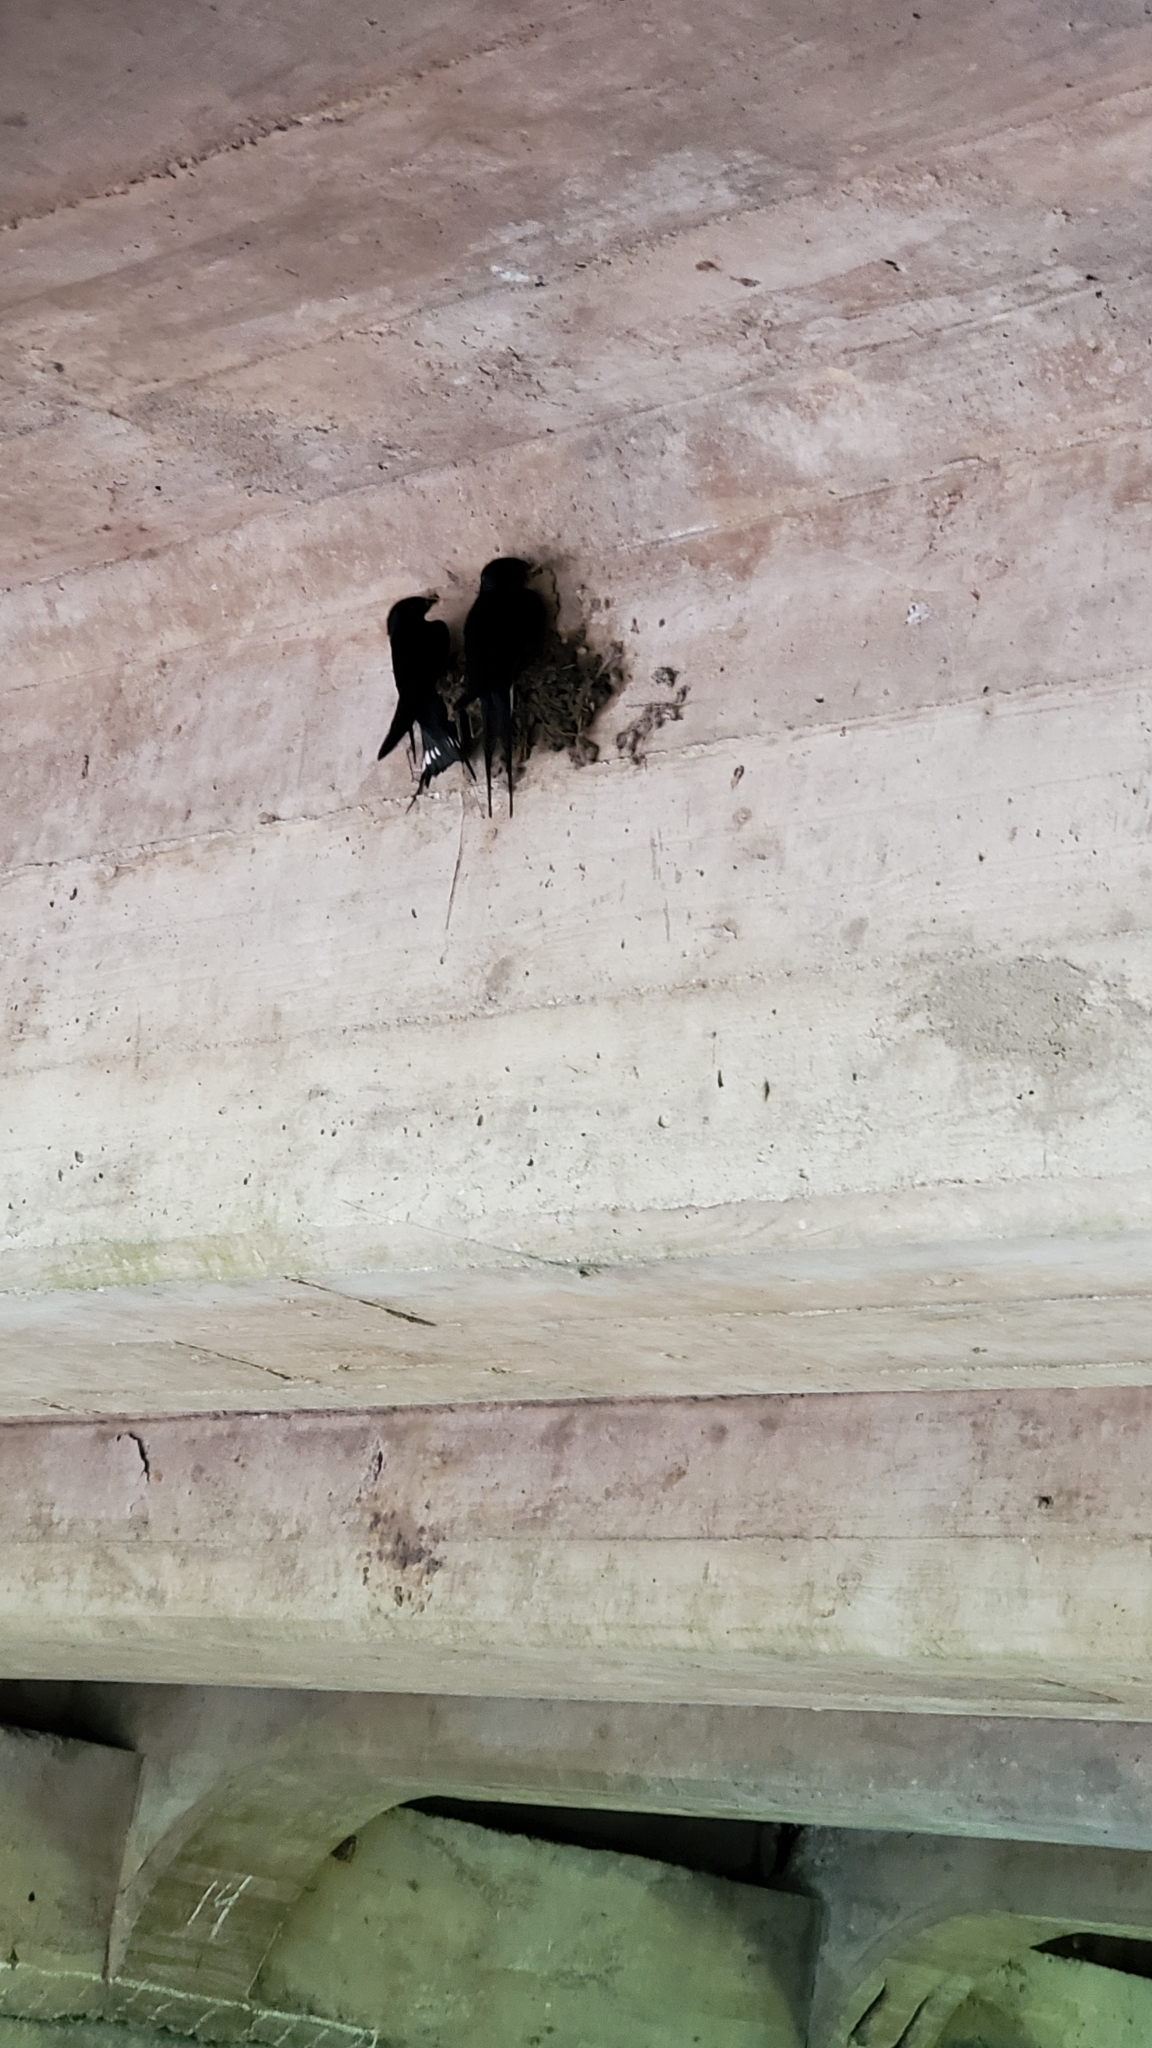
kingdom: Animalia
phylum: Chordata
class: Aves
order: Passeriformes
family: Hirundinidae
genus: Hirundo
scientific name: Hirundo rustica
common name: Barn swallow
